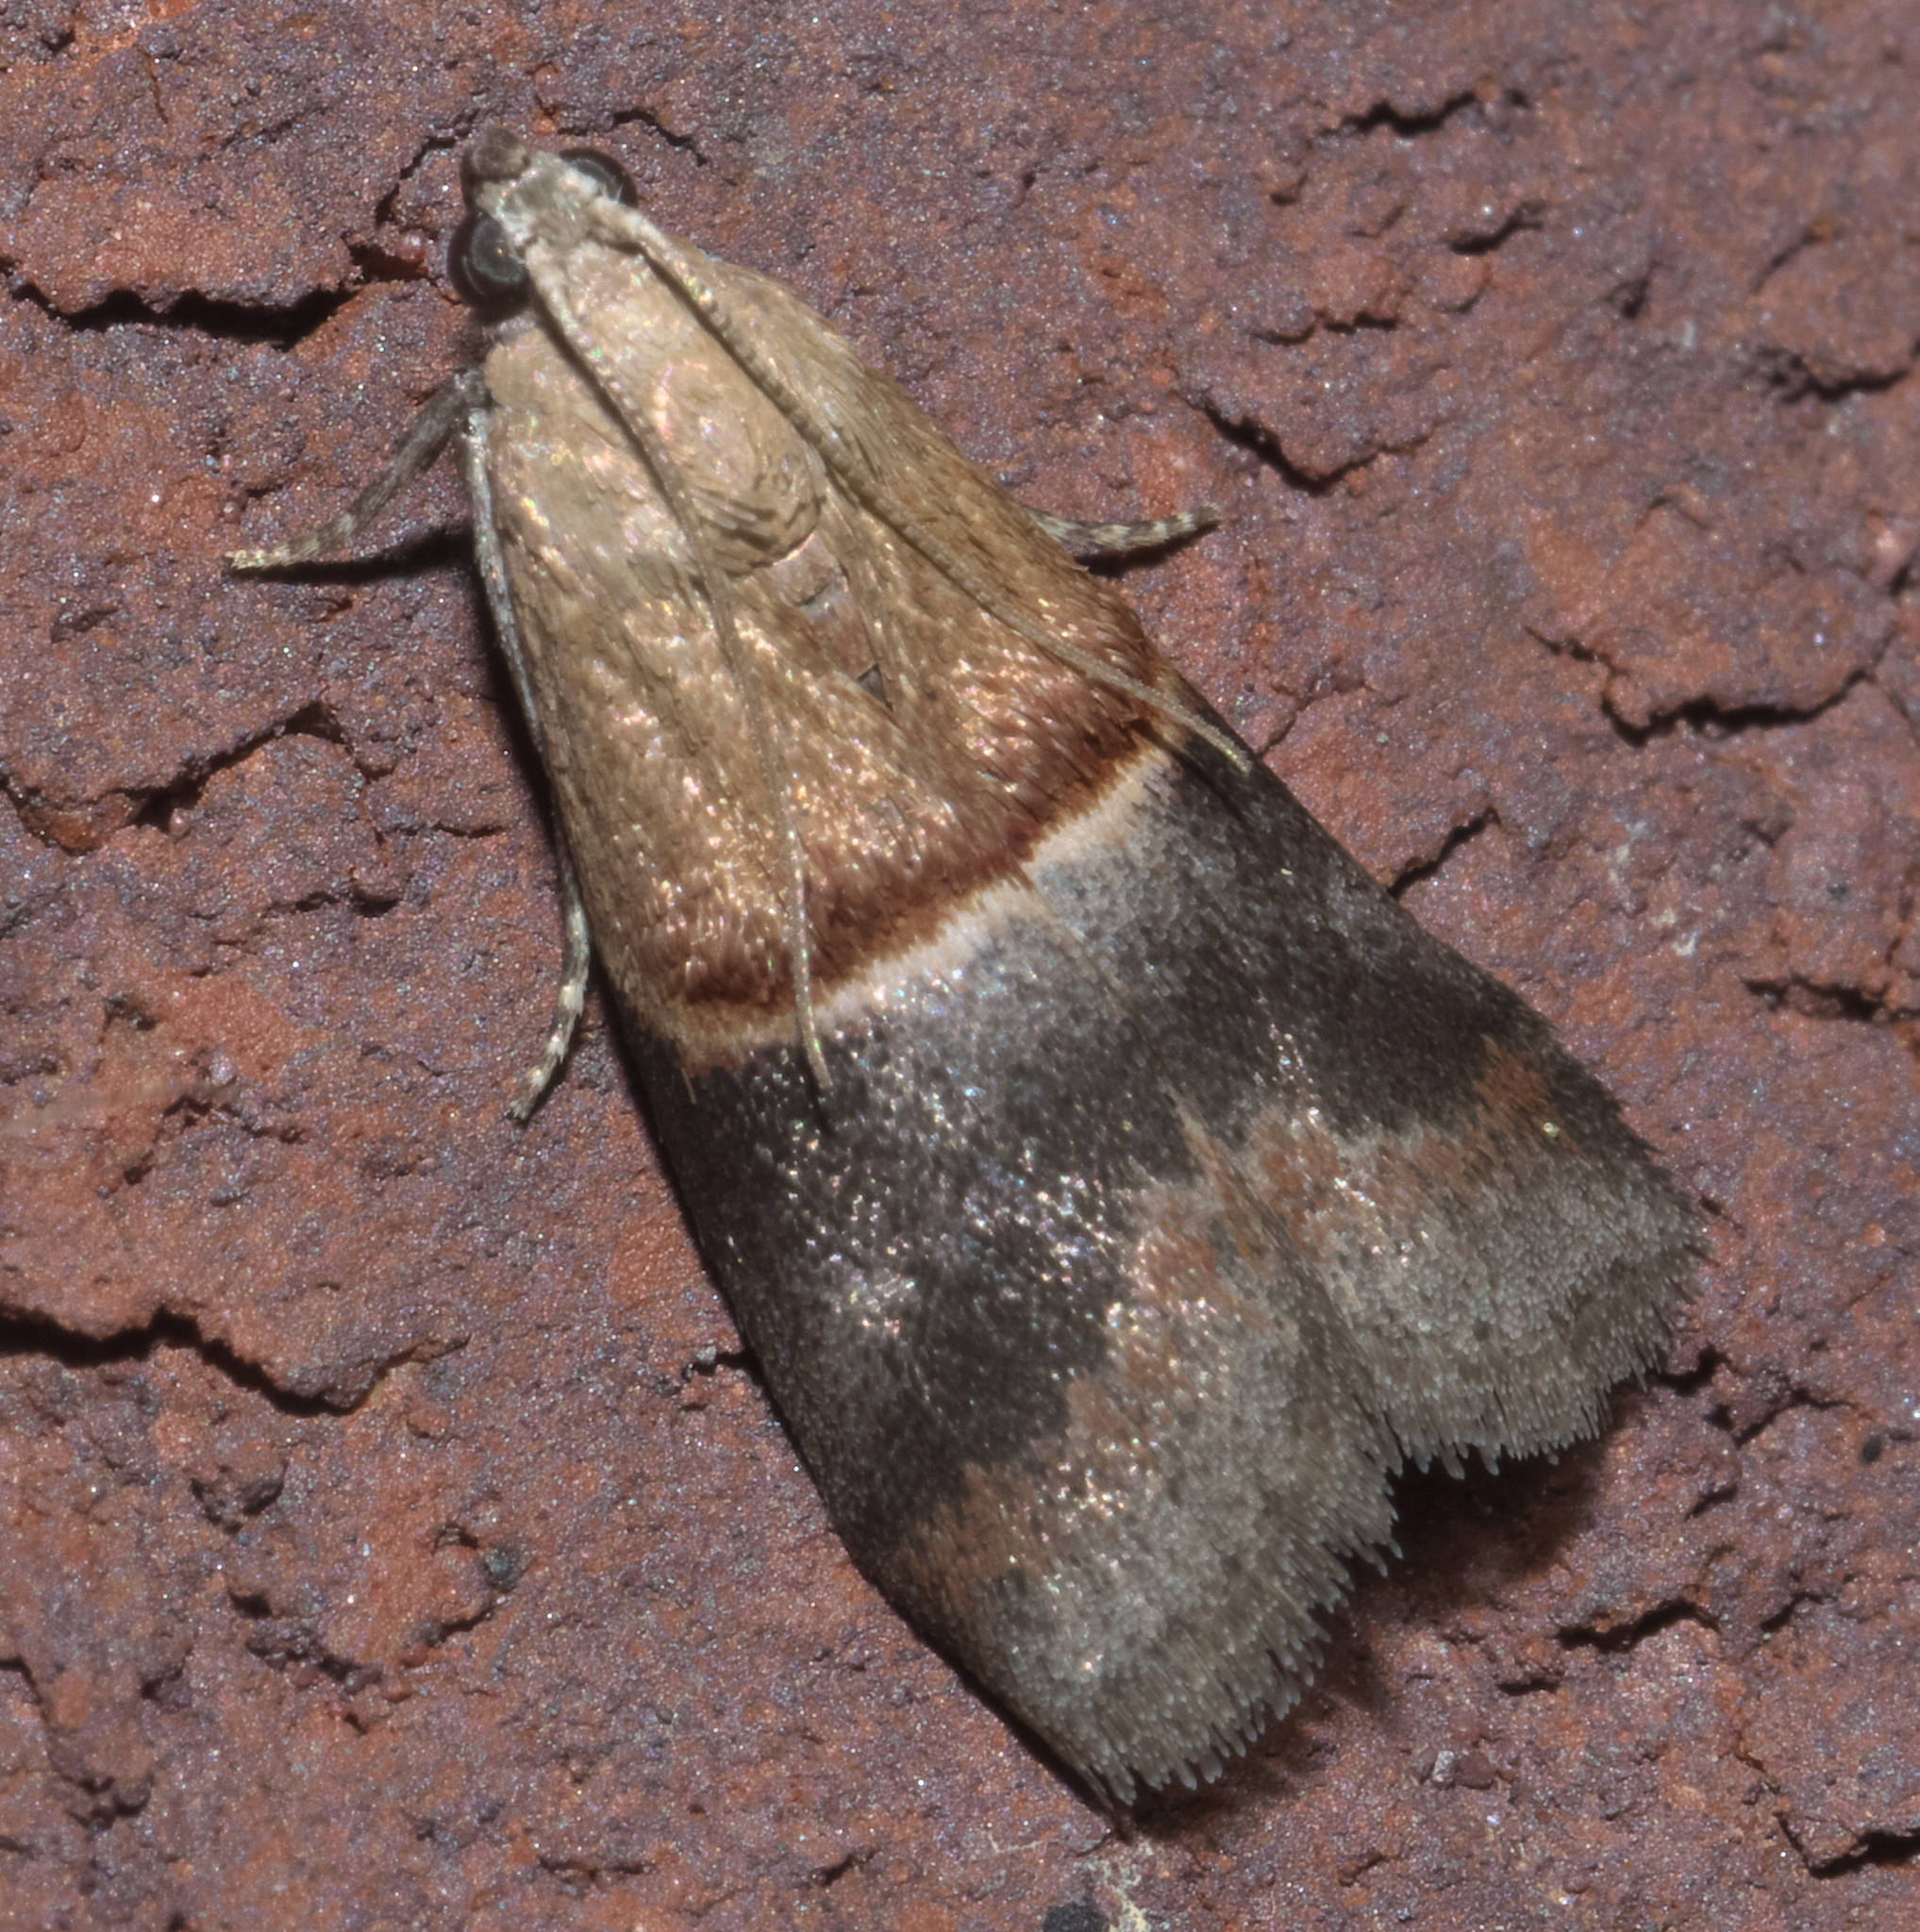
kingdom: Animalia
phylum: Arthropoda
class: Insecta
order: Lepidoptera
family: Pyralidae
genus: Acrobasis
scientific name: Acrobasis demotella
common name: Walnut shoot moth
